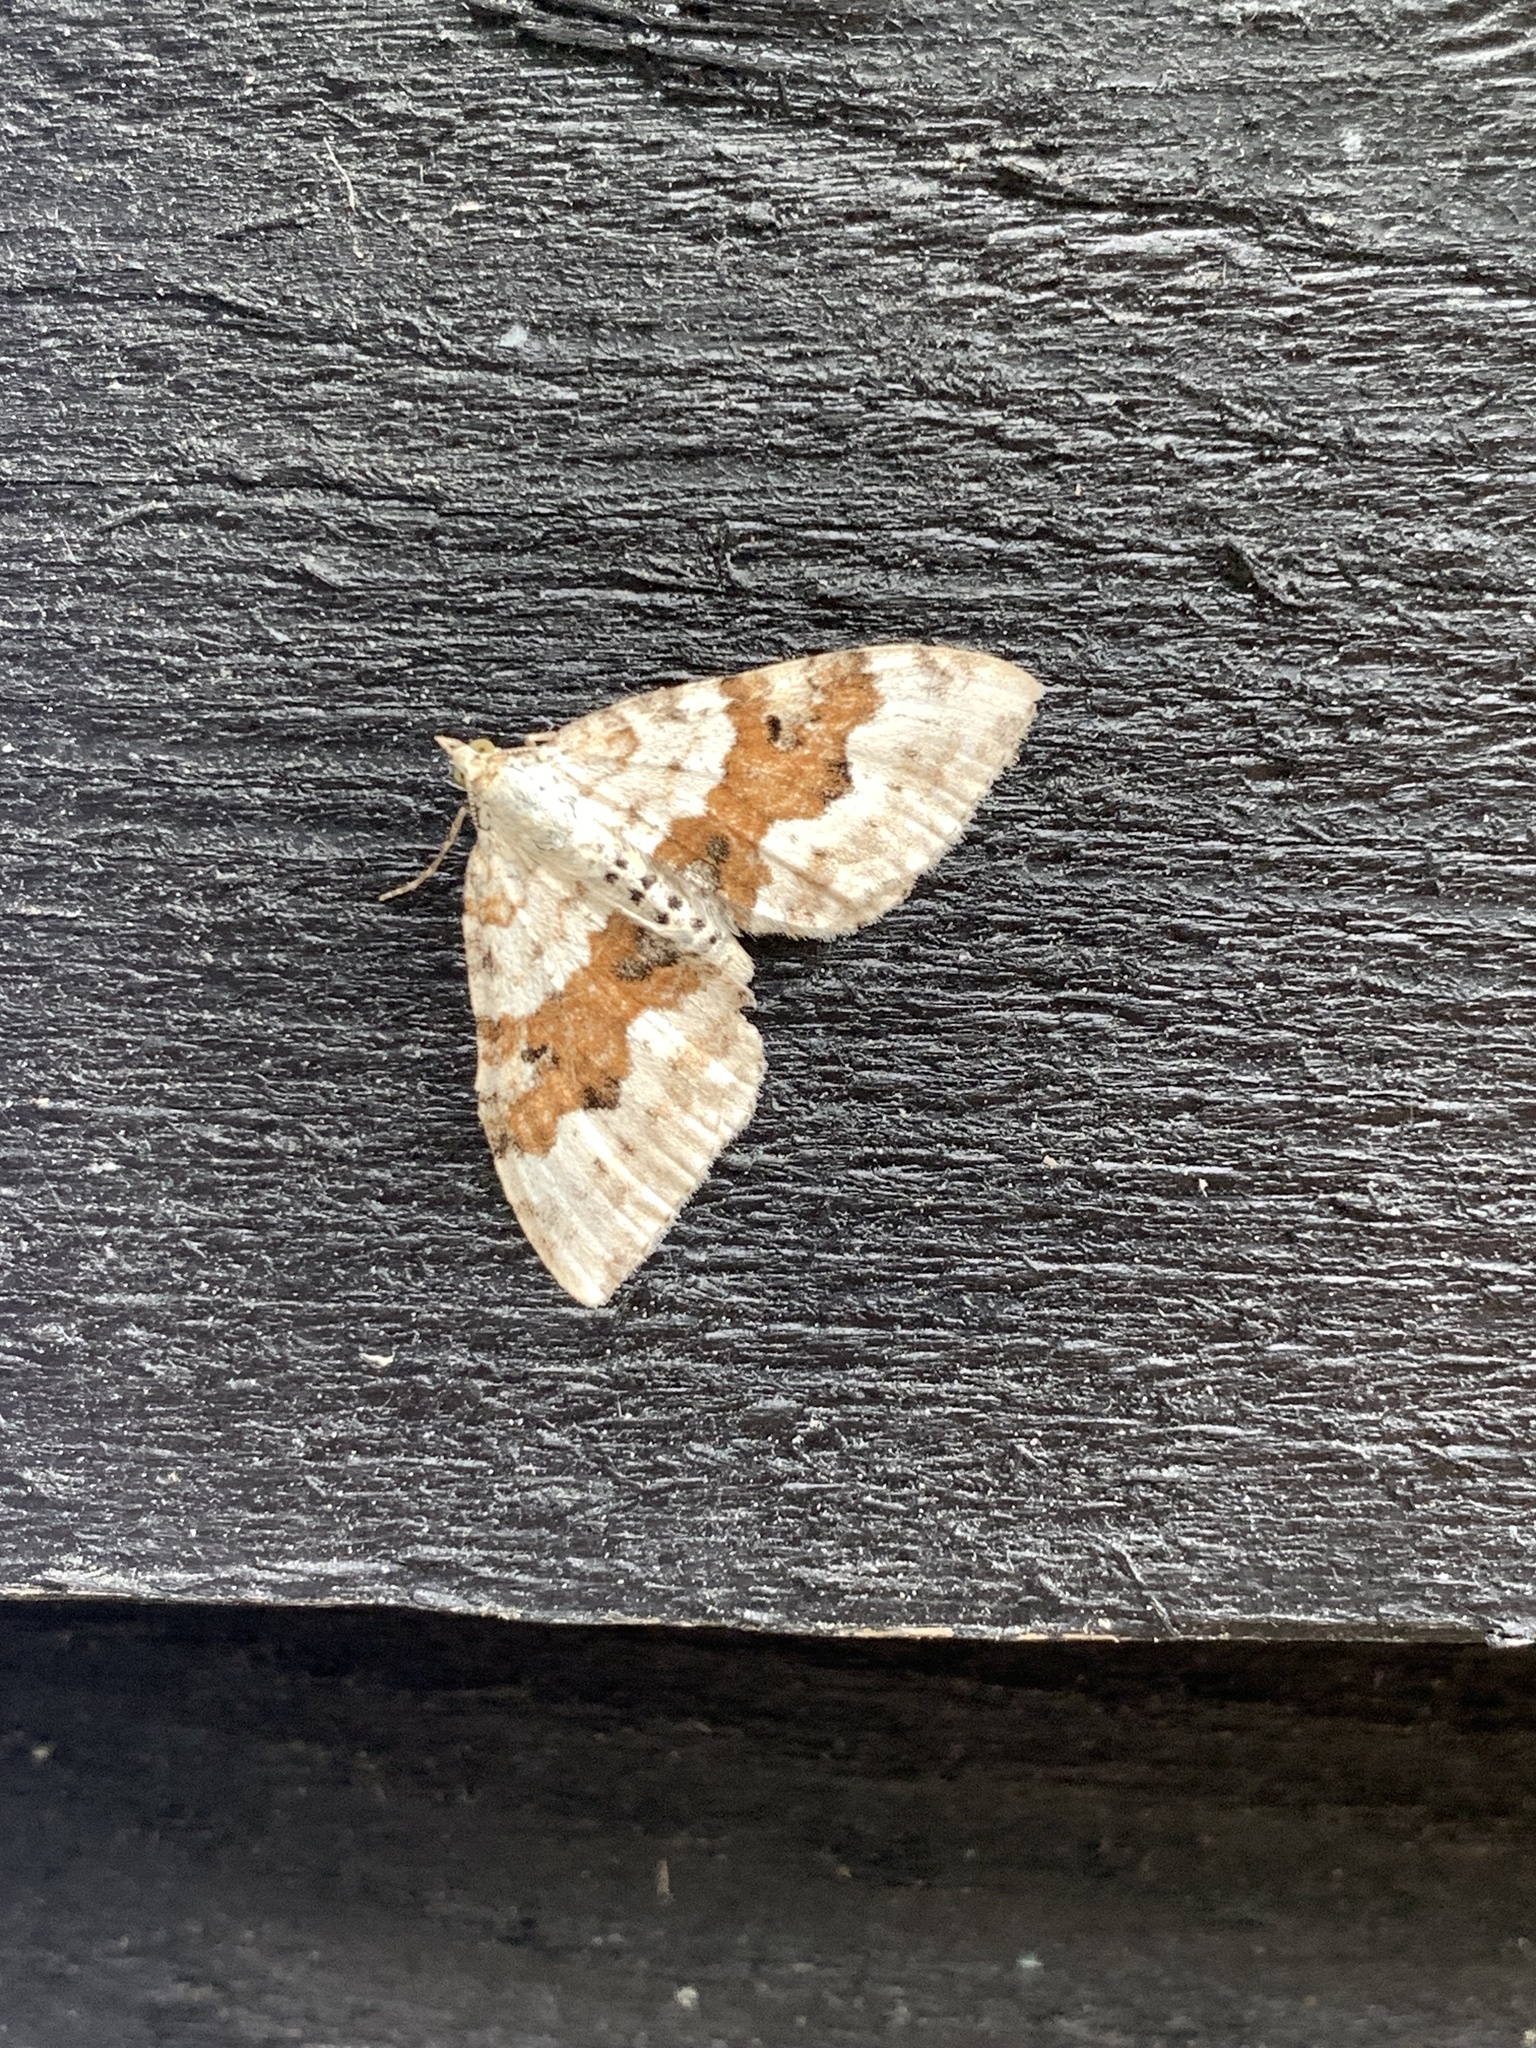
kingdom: Animalia
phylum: Arthropoda
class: Insecta
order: Lepidoptera
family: Geometridae
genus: Xanthorhoe
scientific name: Xanthorhoe montanata
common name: Silver-ground carpet
